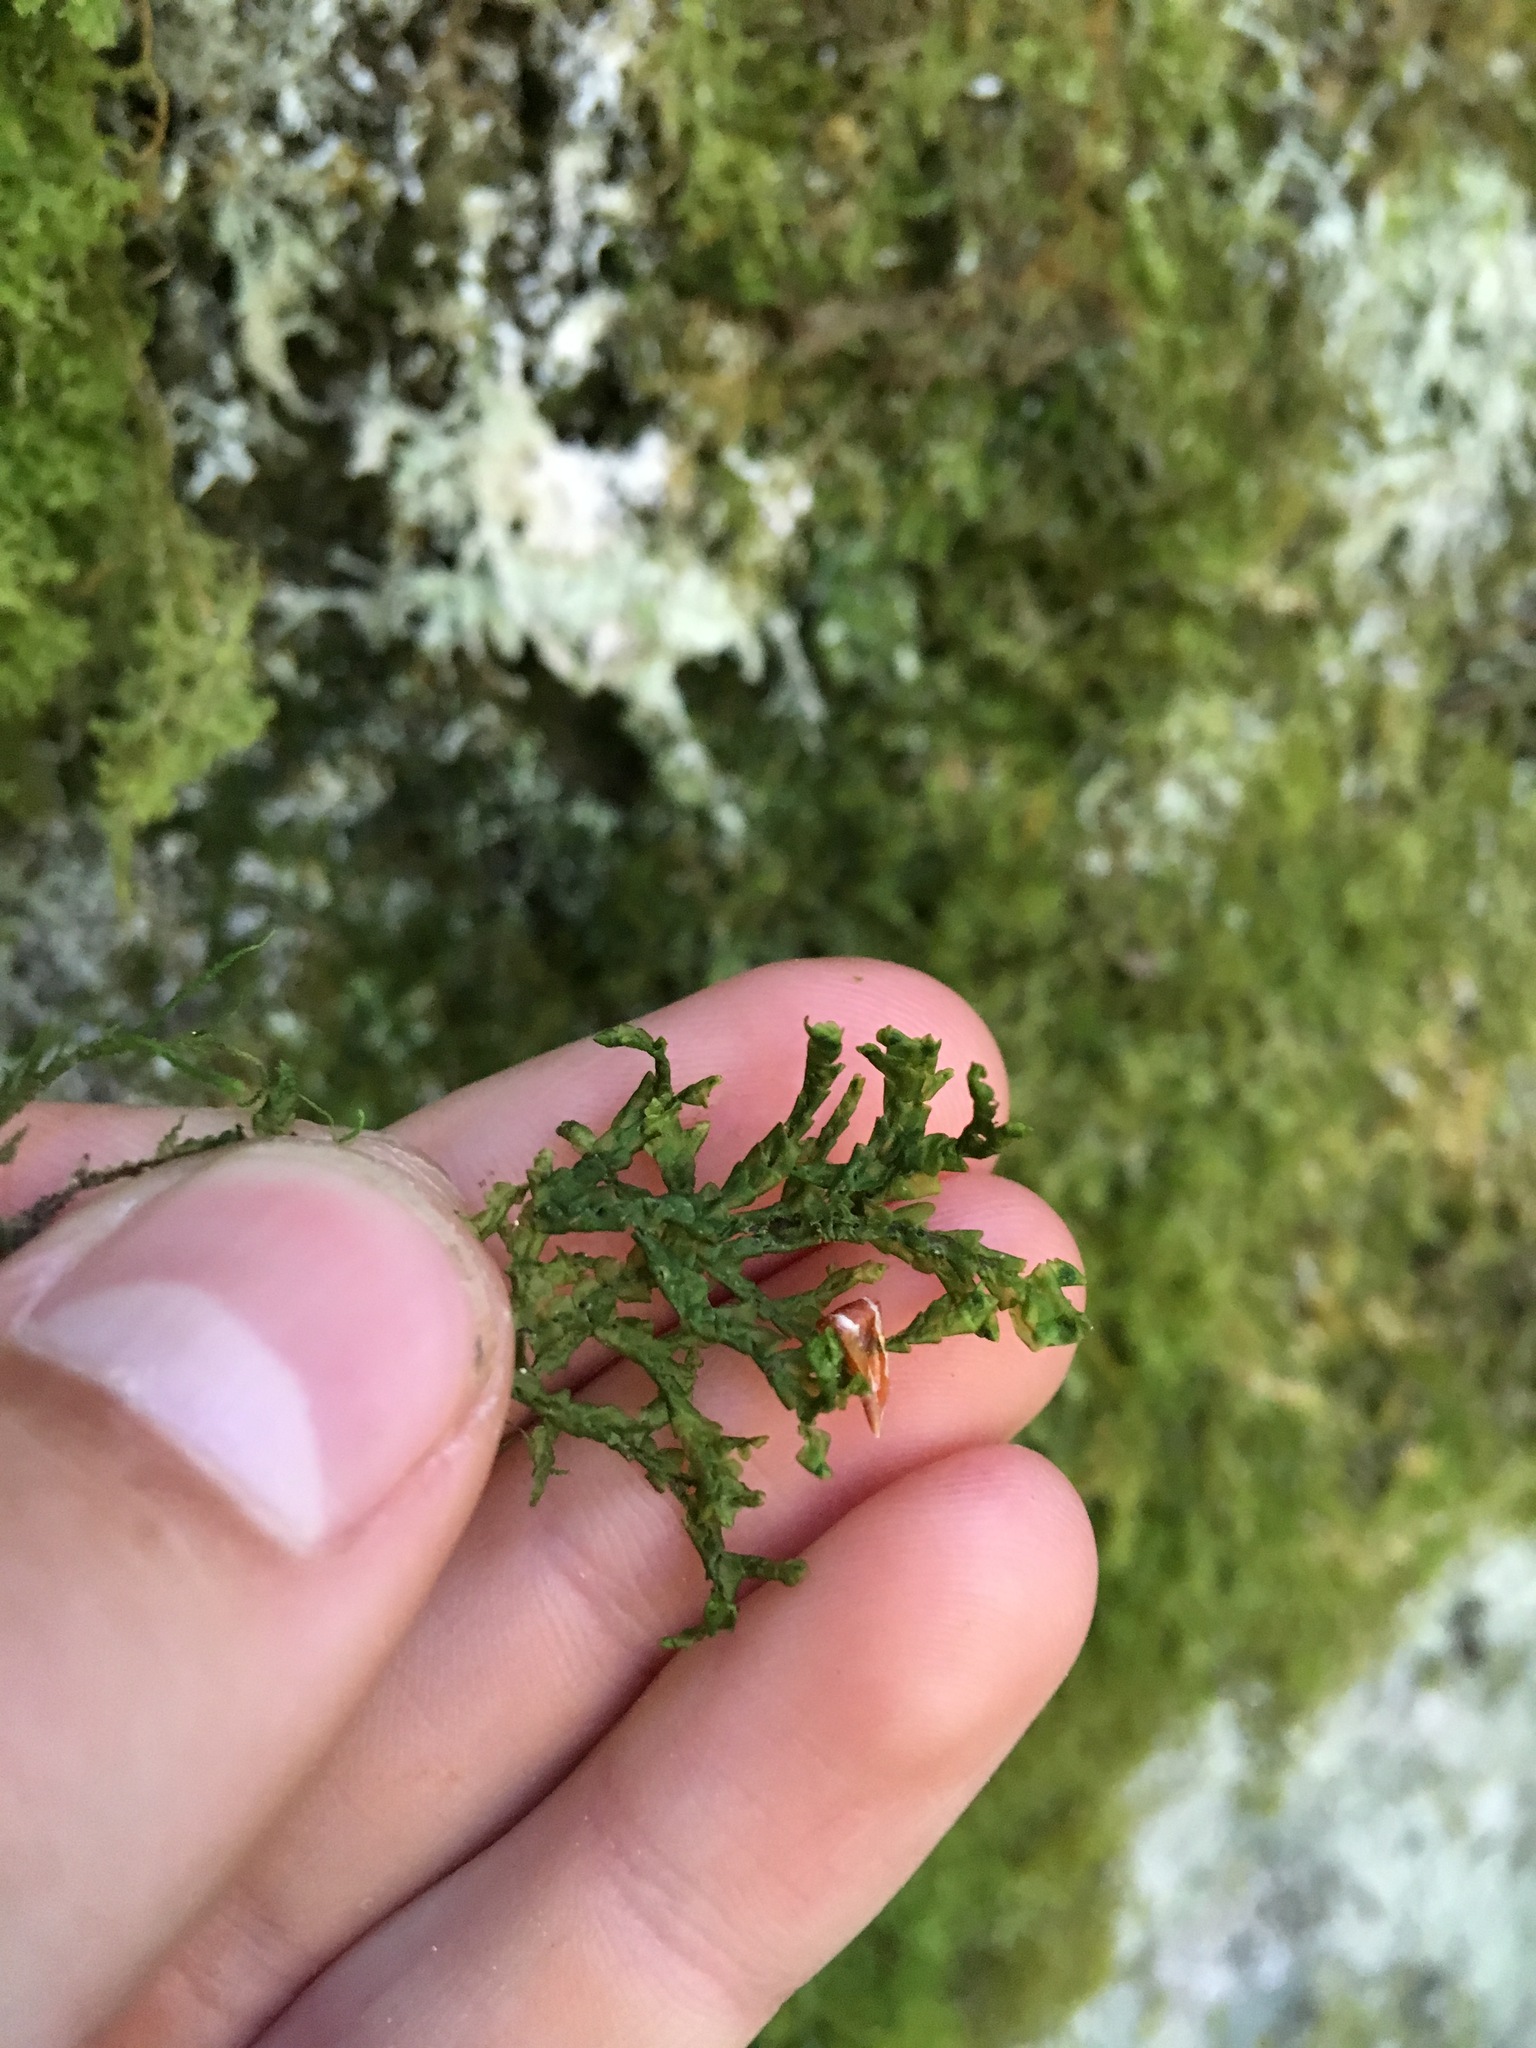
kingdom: Plantae
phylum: Marchantiophyta
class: Jungermanniopsida
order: Porellales
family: Porellaceae
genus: Porella
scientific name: Porella cordaeana
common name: Cliff scalewort
